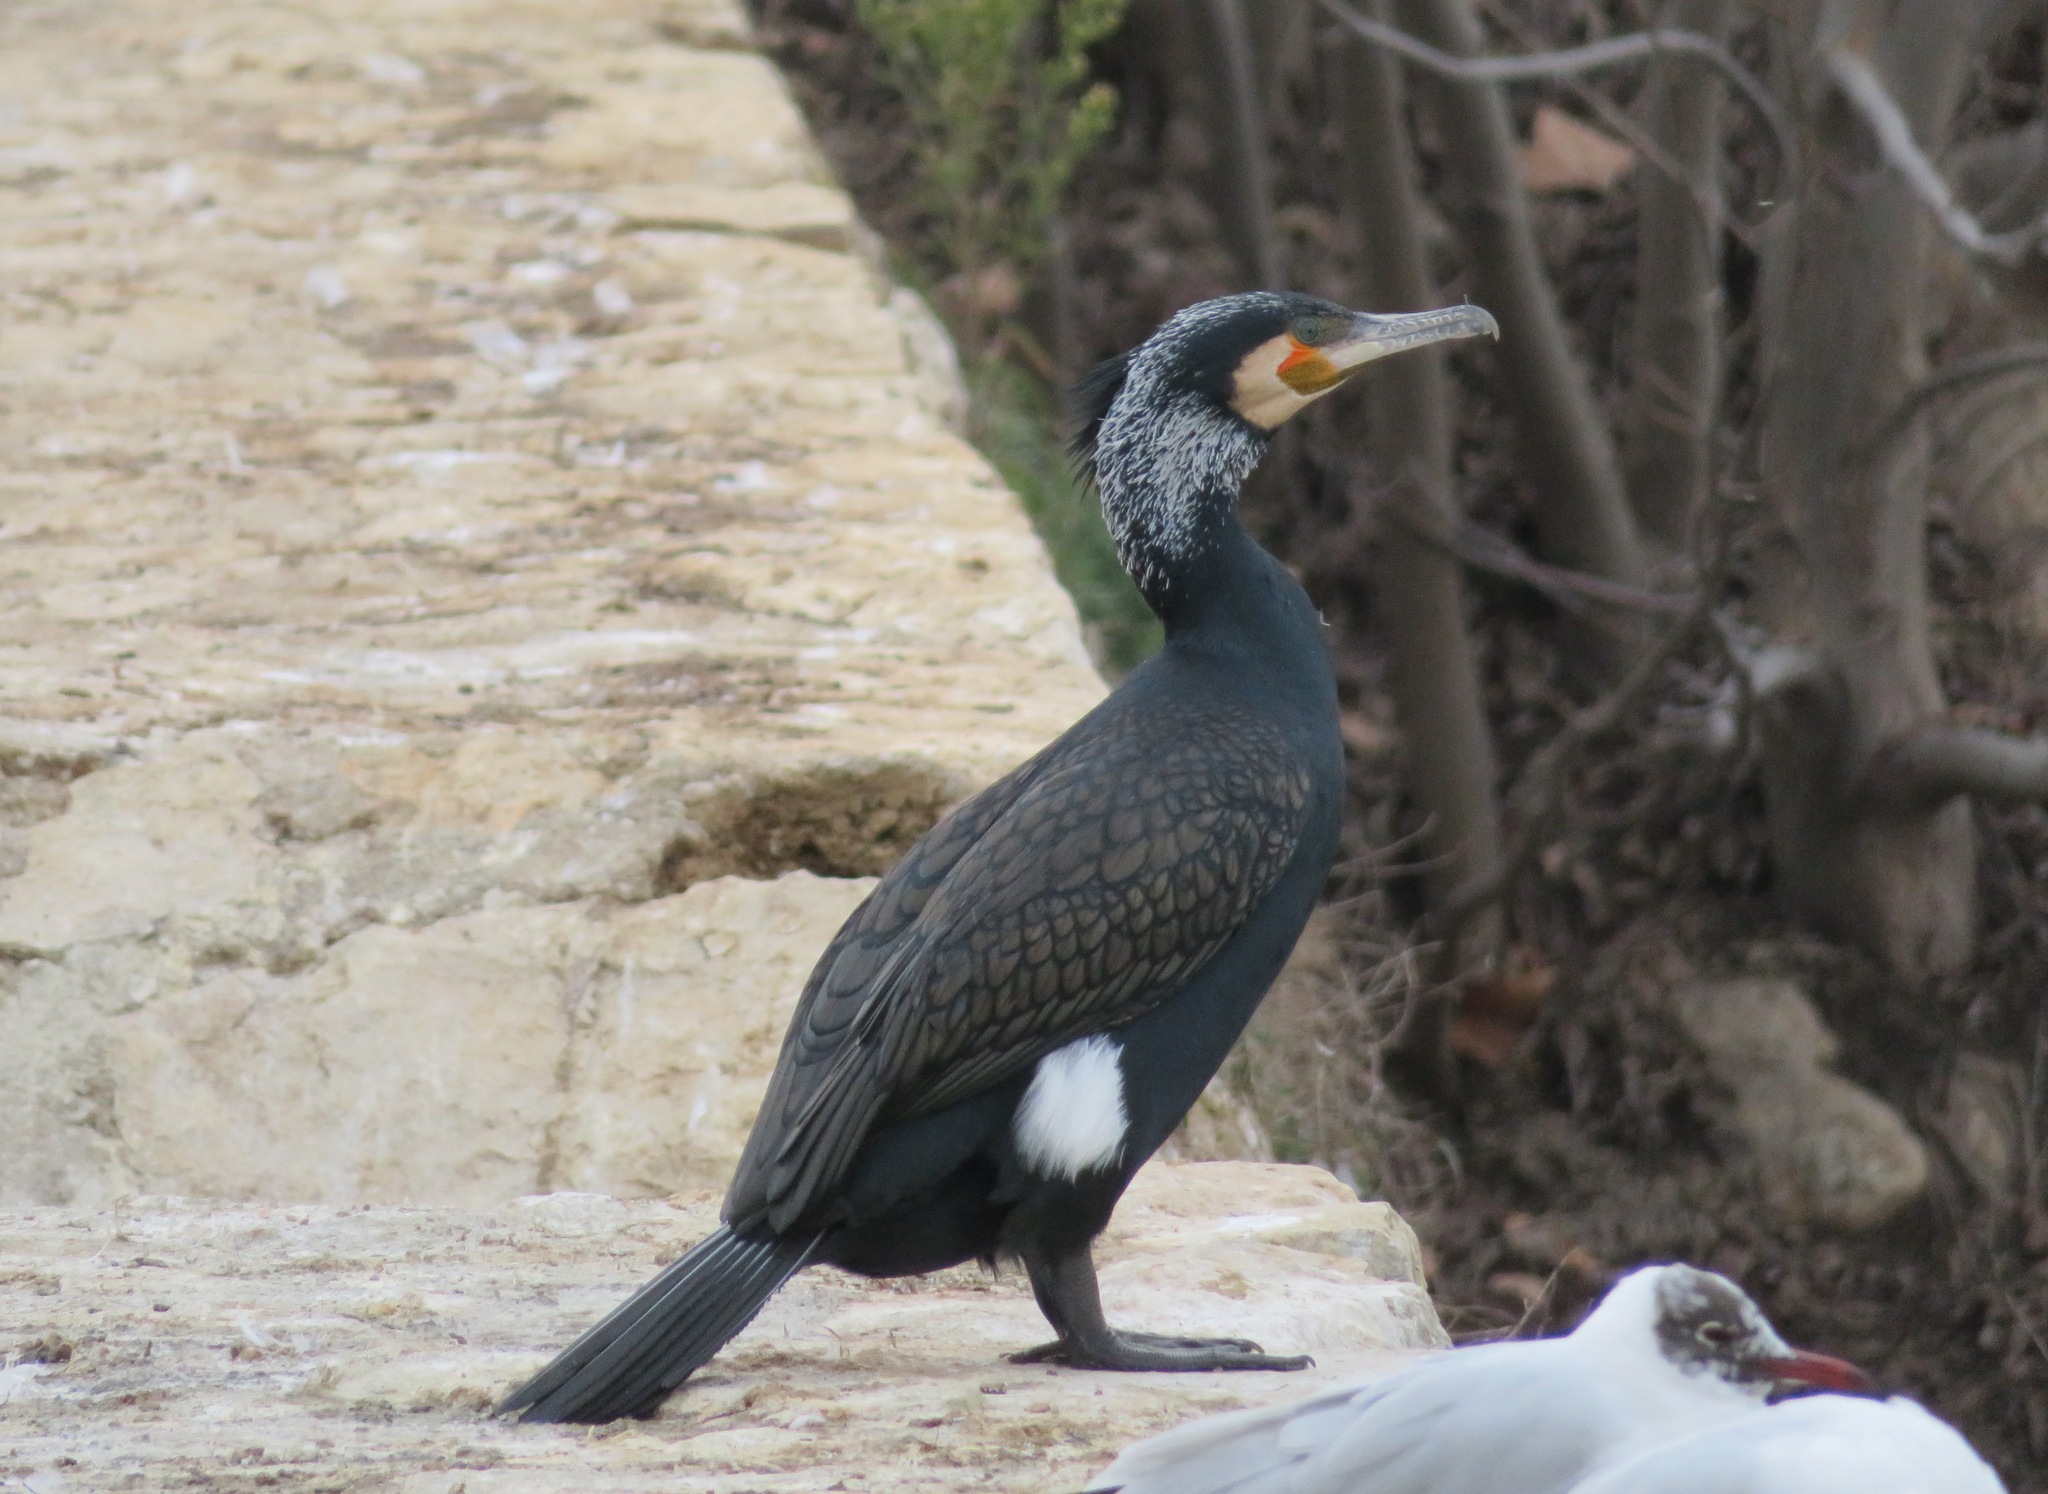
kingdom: Animalia
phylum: Chordata
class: Aves
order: Suliformes
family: Phalacrocoracidae
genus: Phalacrocorax
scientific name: Phalacrocorax carbo
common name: Great cormorant
